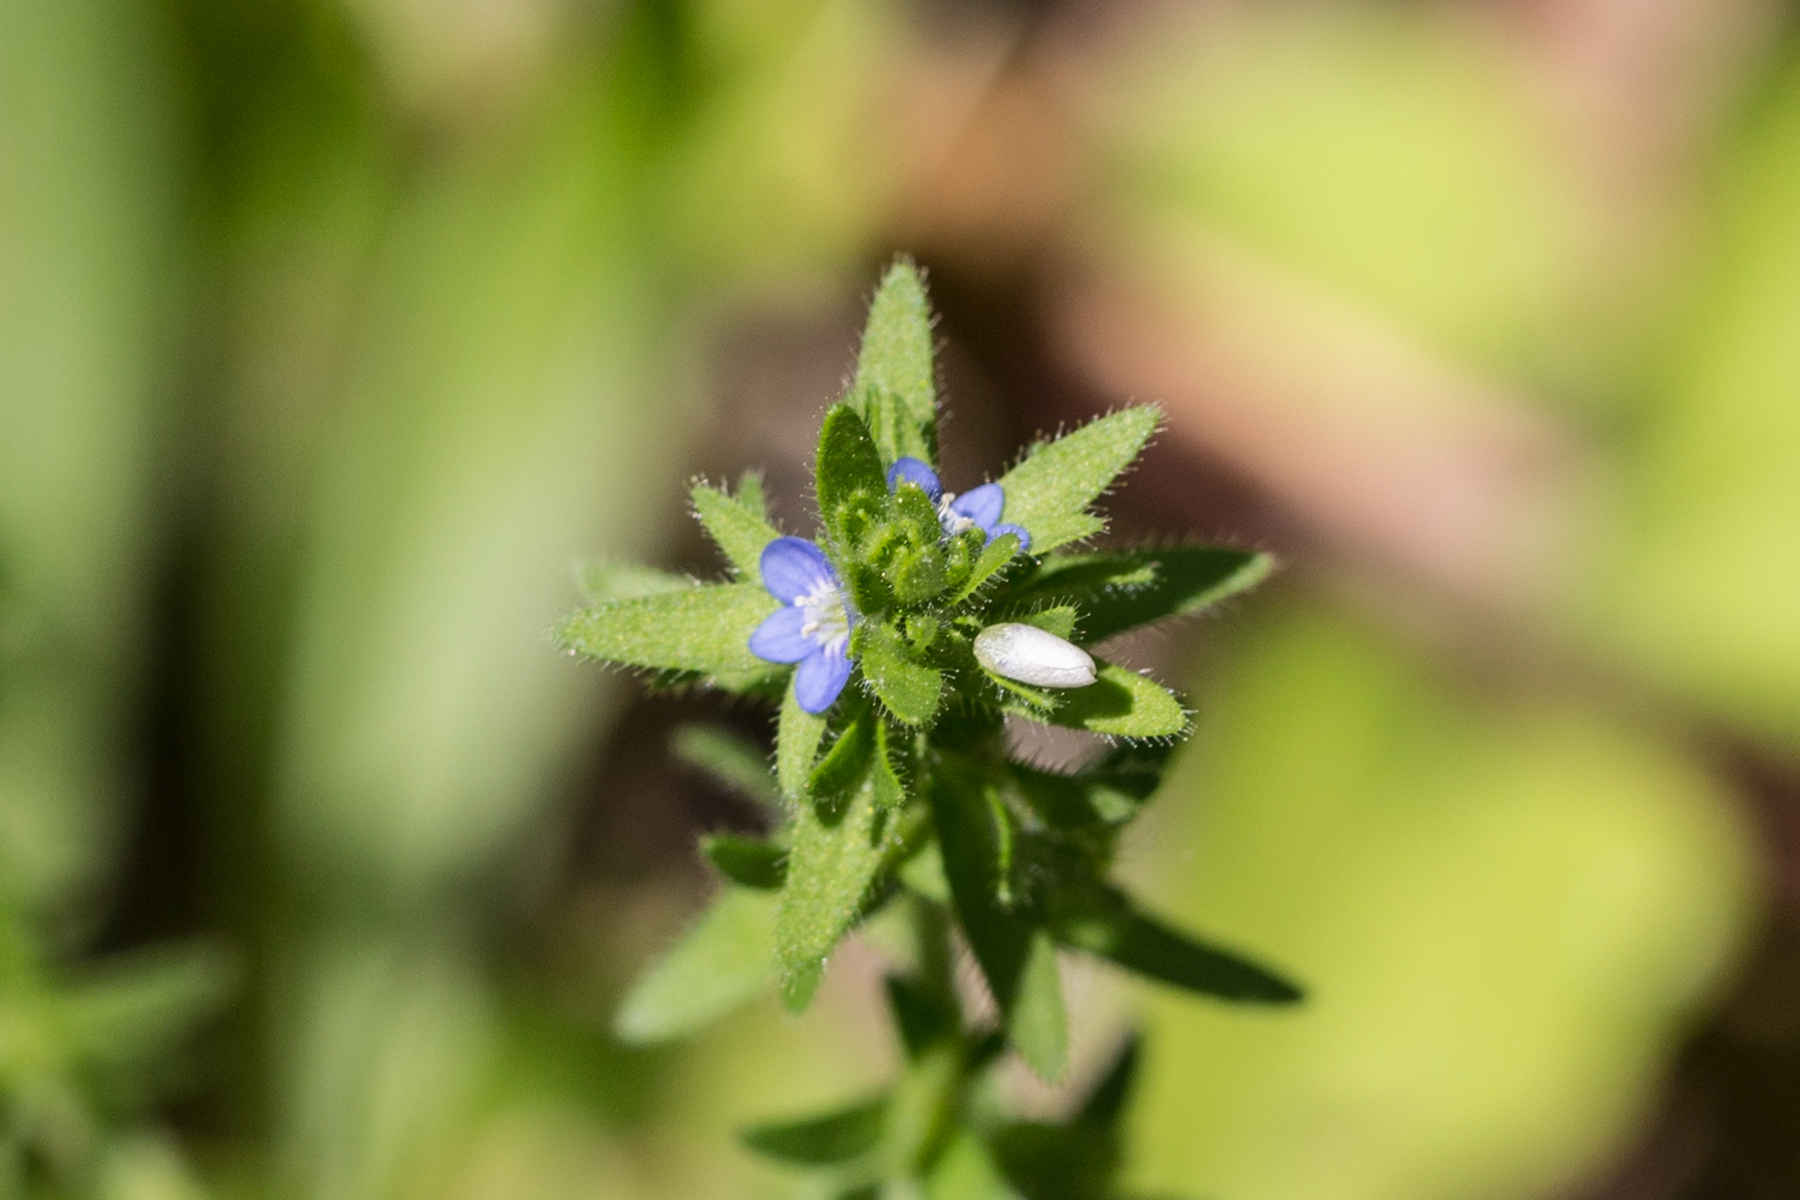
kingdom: Plantae
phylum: Tracheophyta
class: Magnoliopsida
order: Lamiales
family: Plantaginaceae
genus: Veronica
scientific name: Veronica arvensis
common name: Corn speedwell
